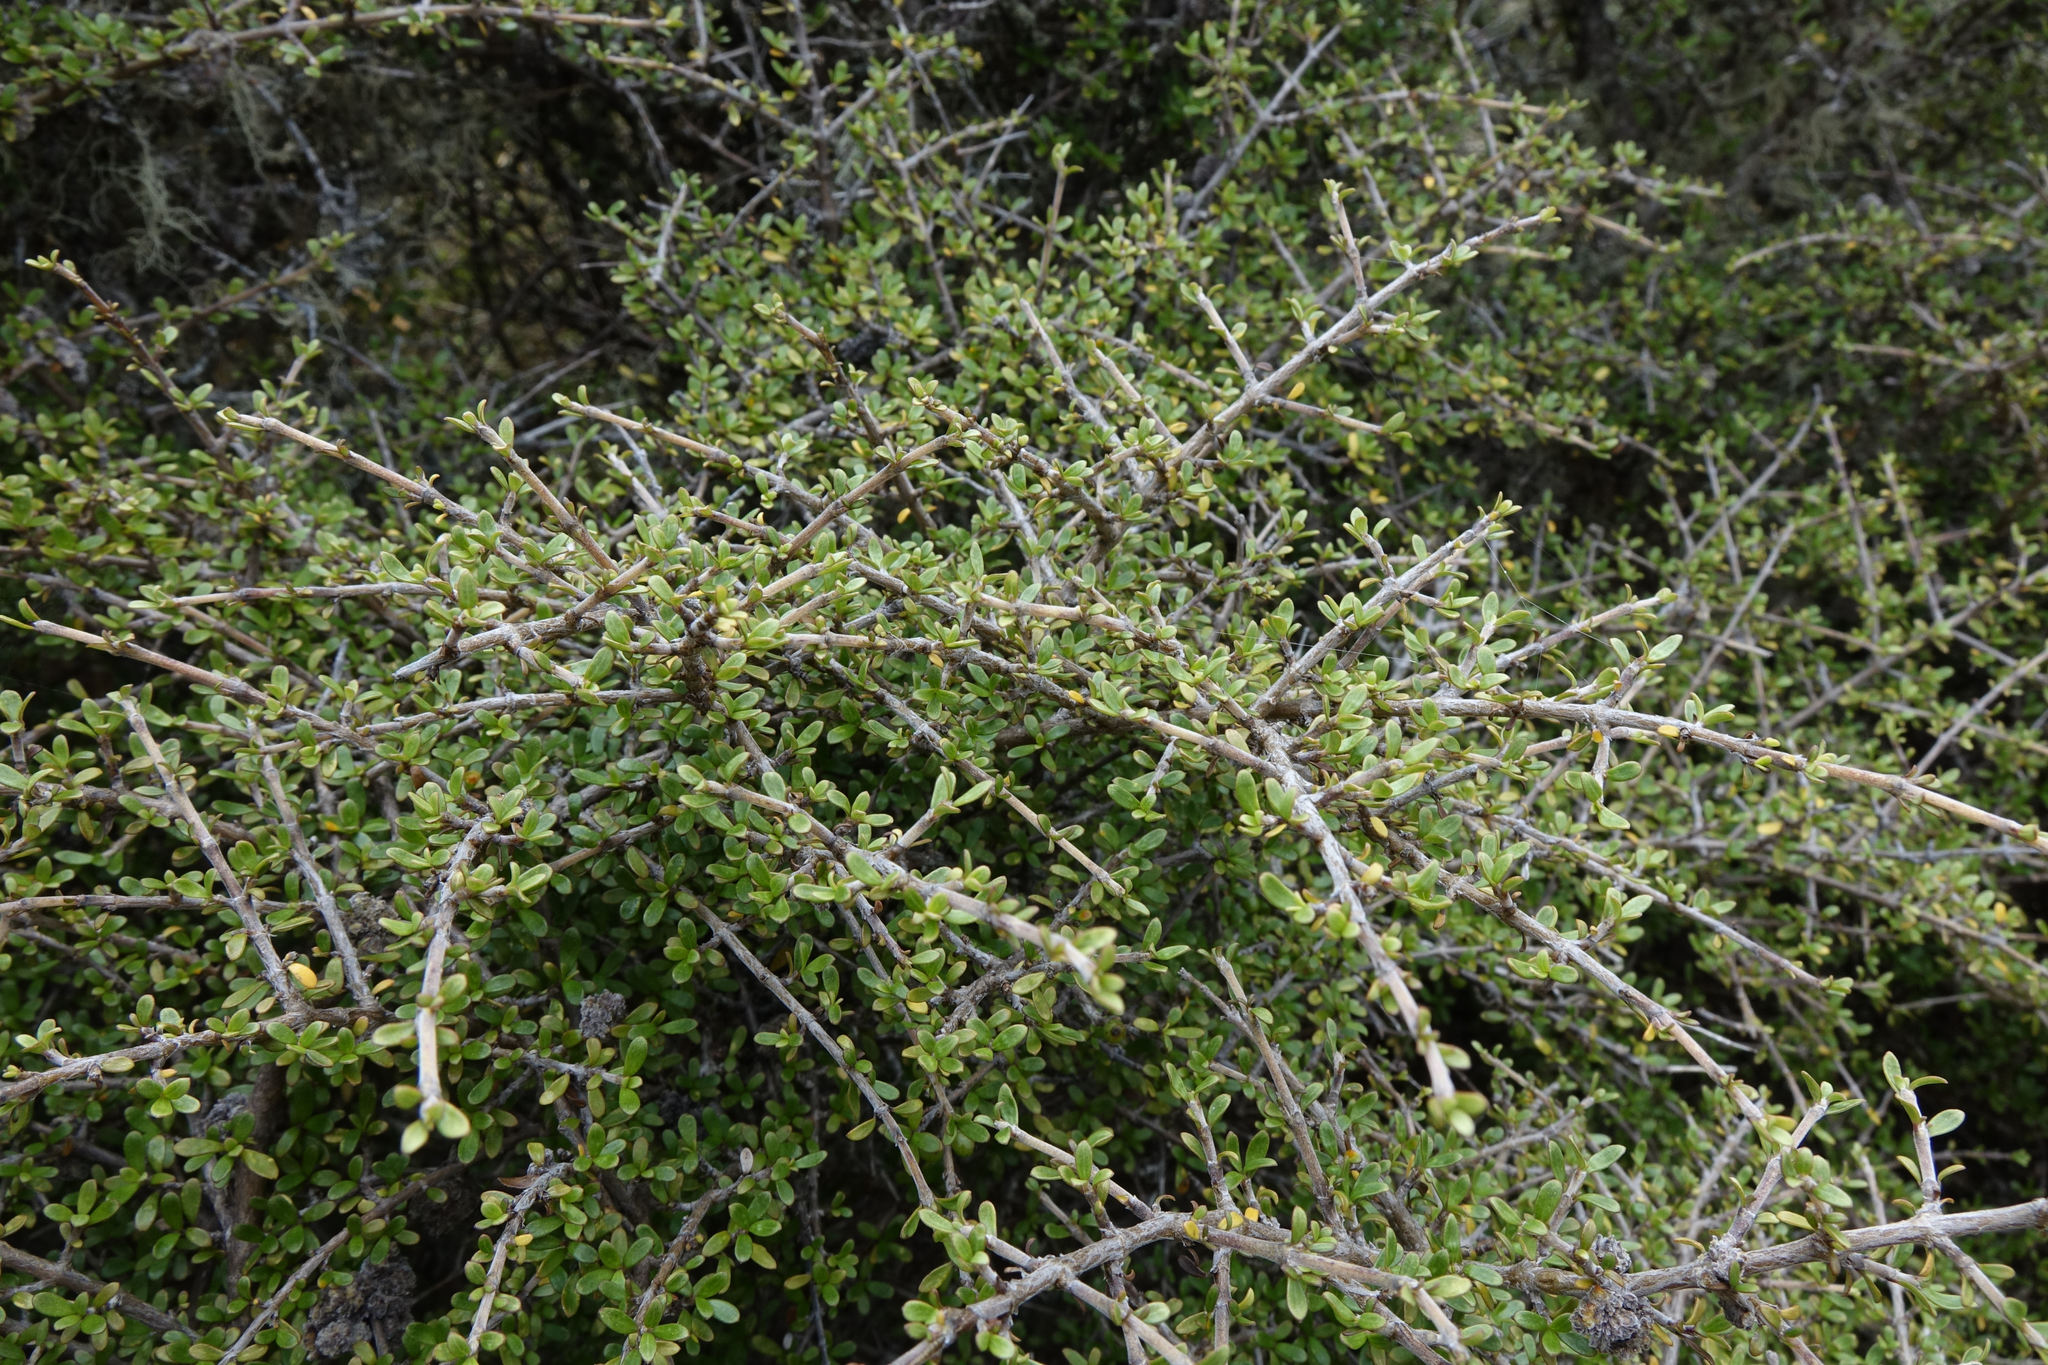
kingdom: Plantae
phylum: Tracheophyta
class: Magnoliopsida
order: Gentianales
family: Rubiaceae
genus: Coprosma
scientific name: Coprosma dumosa
